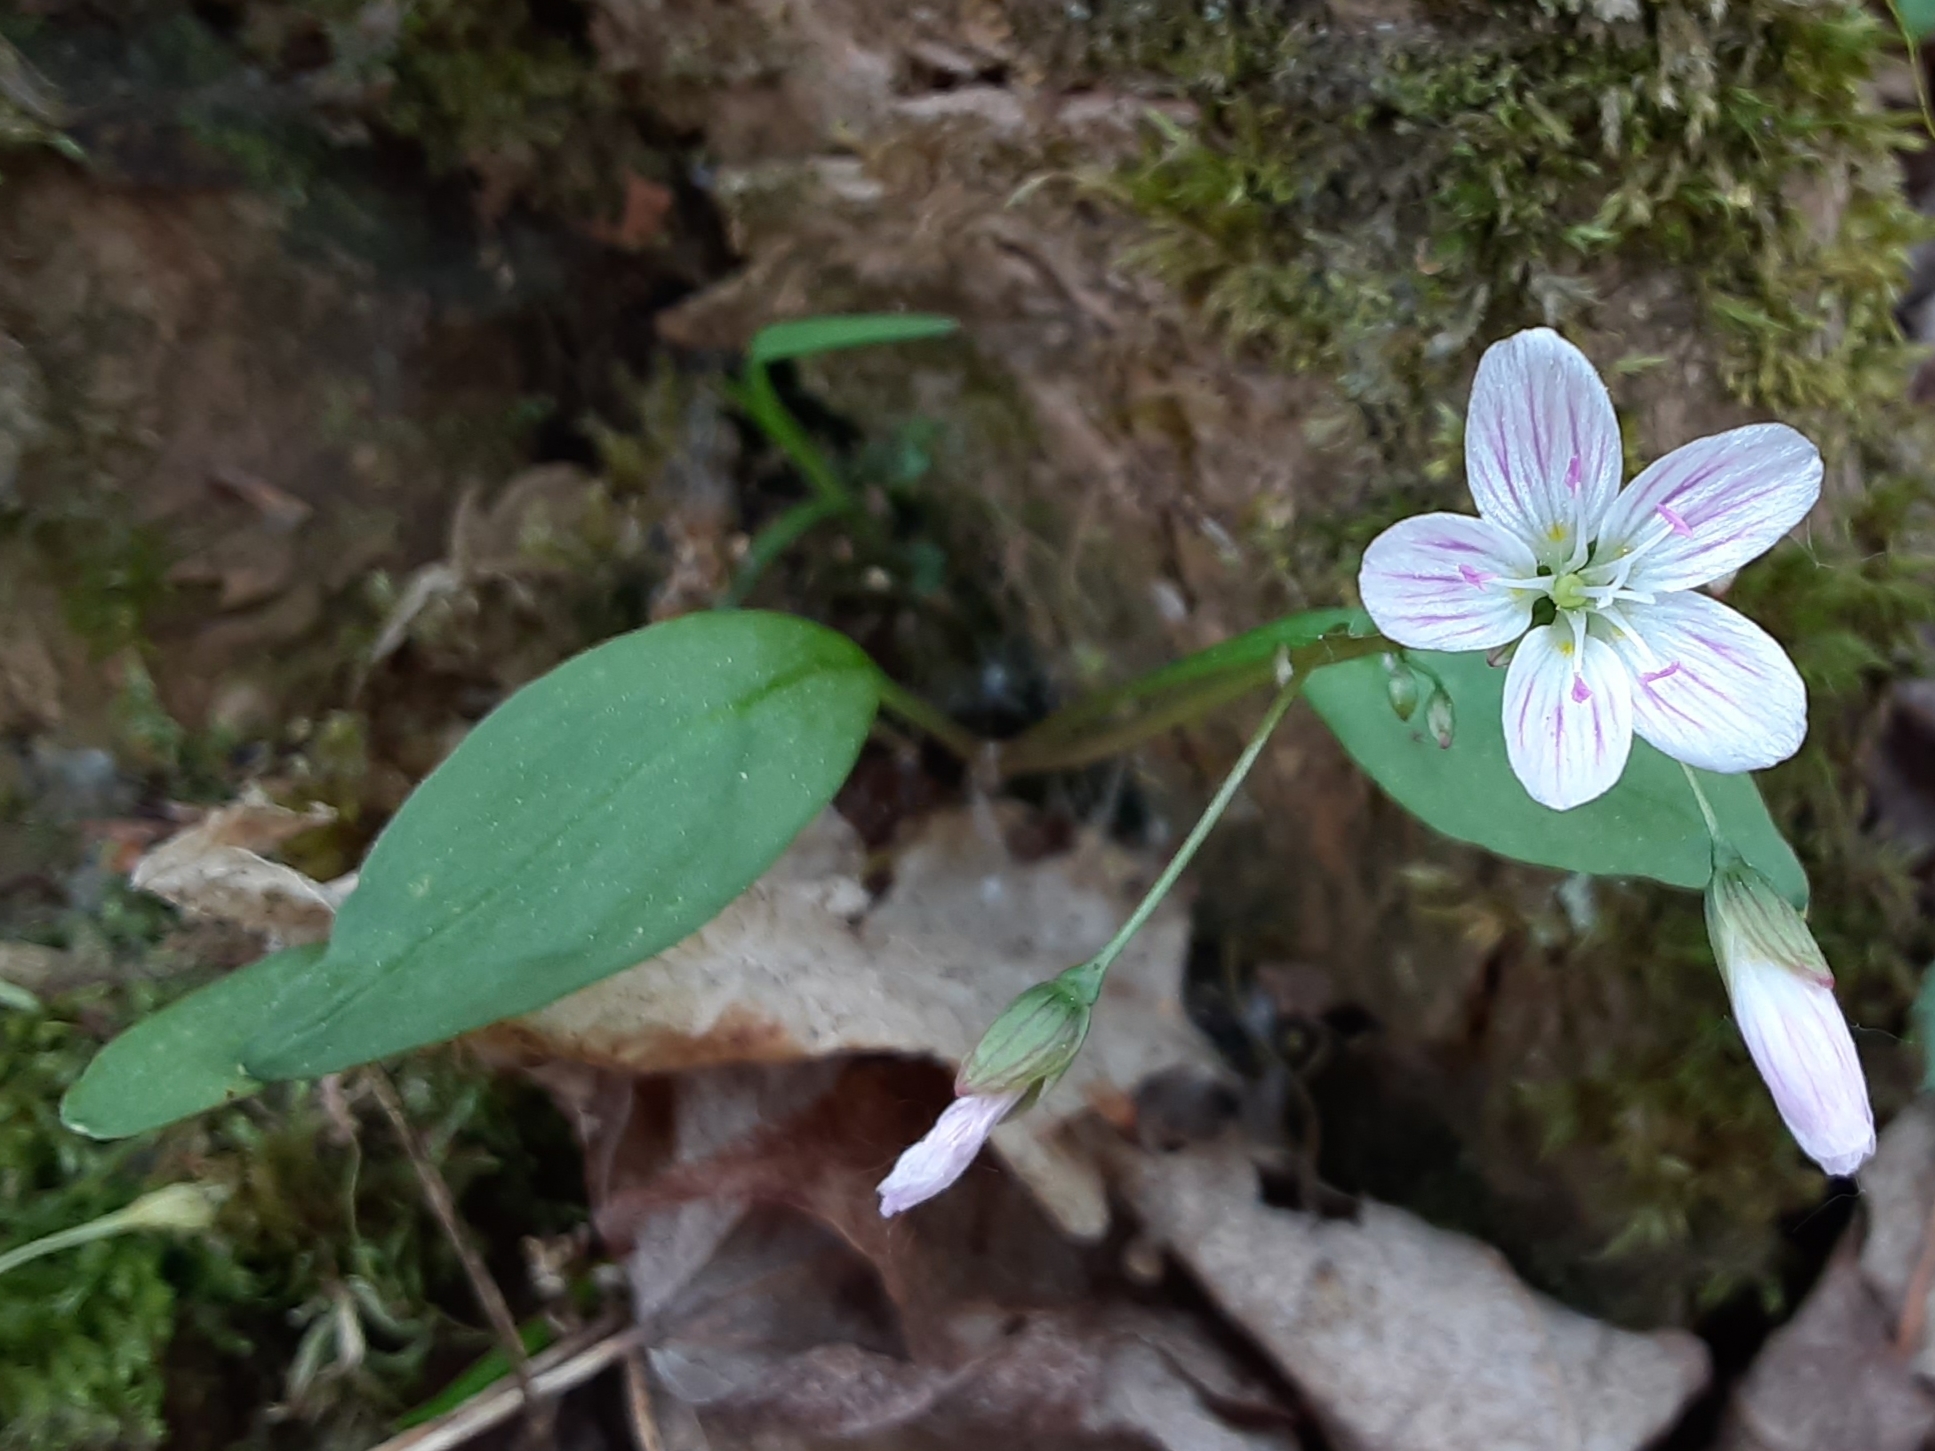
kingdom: Plantae
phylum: Tracheophyta
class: Magnoliopsida
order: Caryophyllales
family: Montiaceae
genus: Claytonia
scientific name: Claytonia caroliniana
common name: Carolina spring beauty
